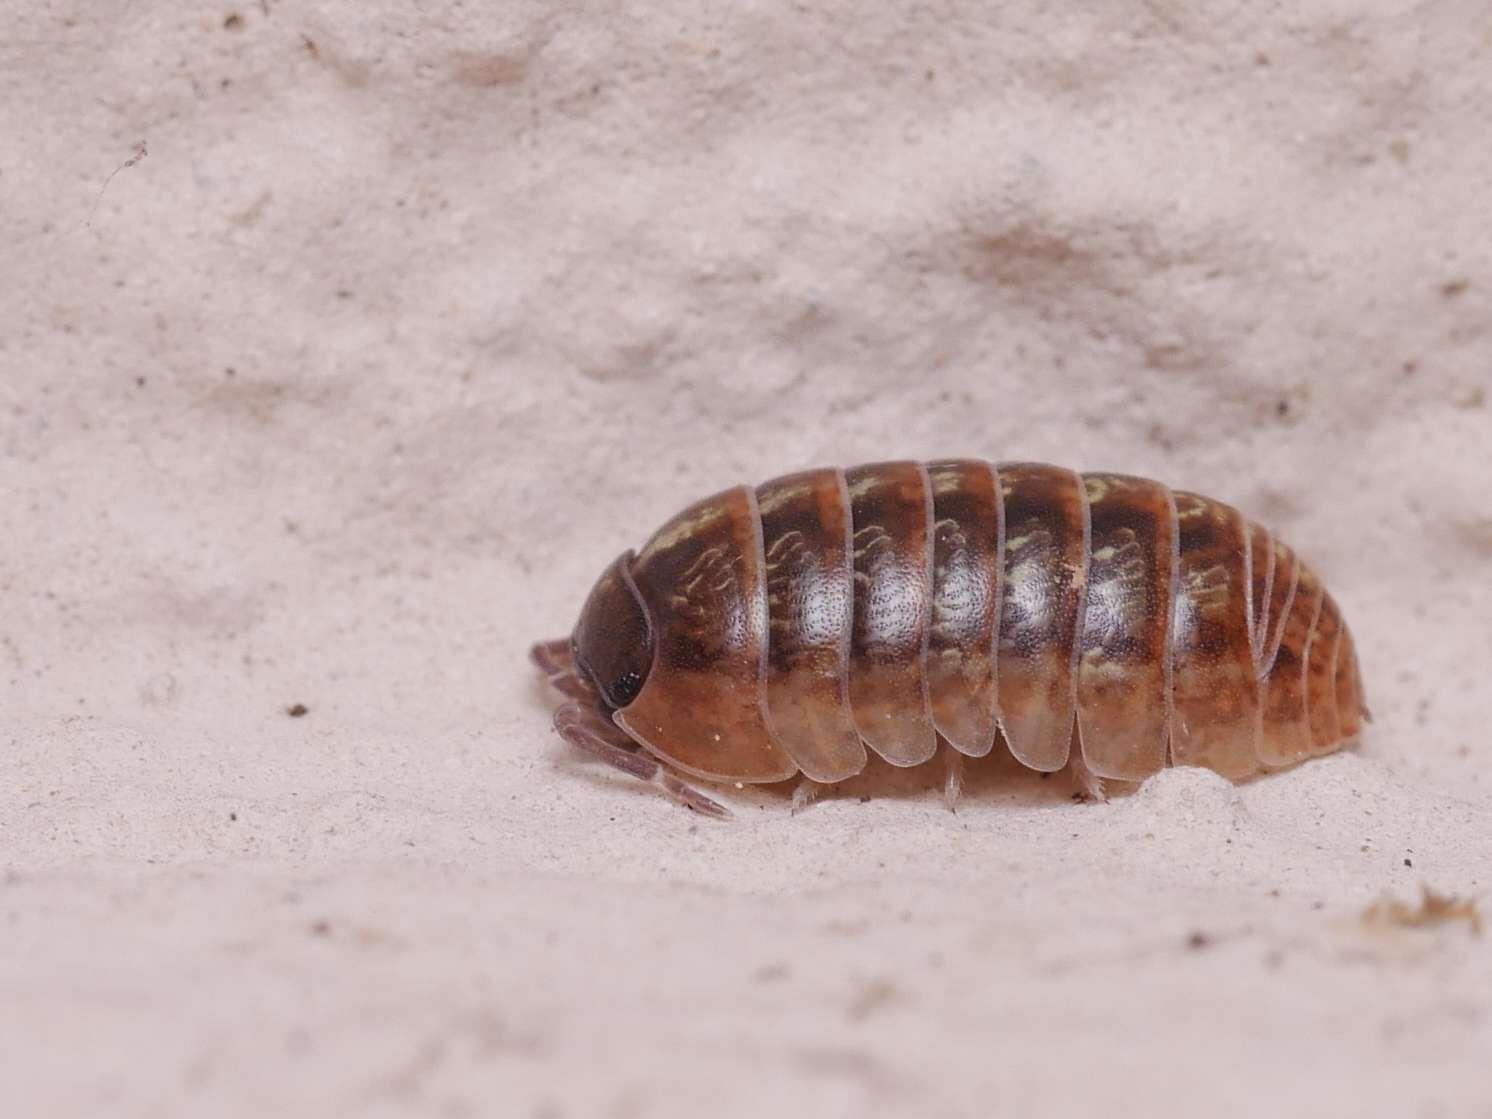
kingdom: Animalia
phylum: Arthropoda
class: Malacostraca
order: Isopoda
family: Armadillidiidae
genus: Armadillidium
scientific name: Armadillidium vulgare
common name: Common pill woodlouse
